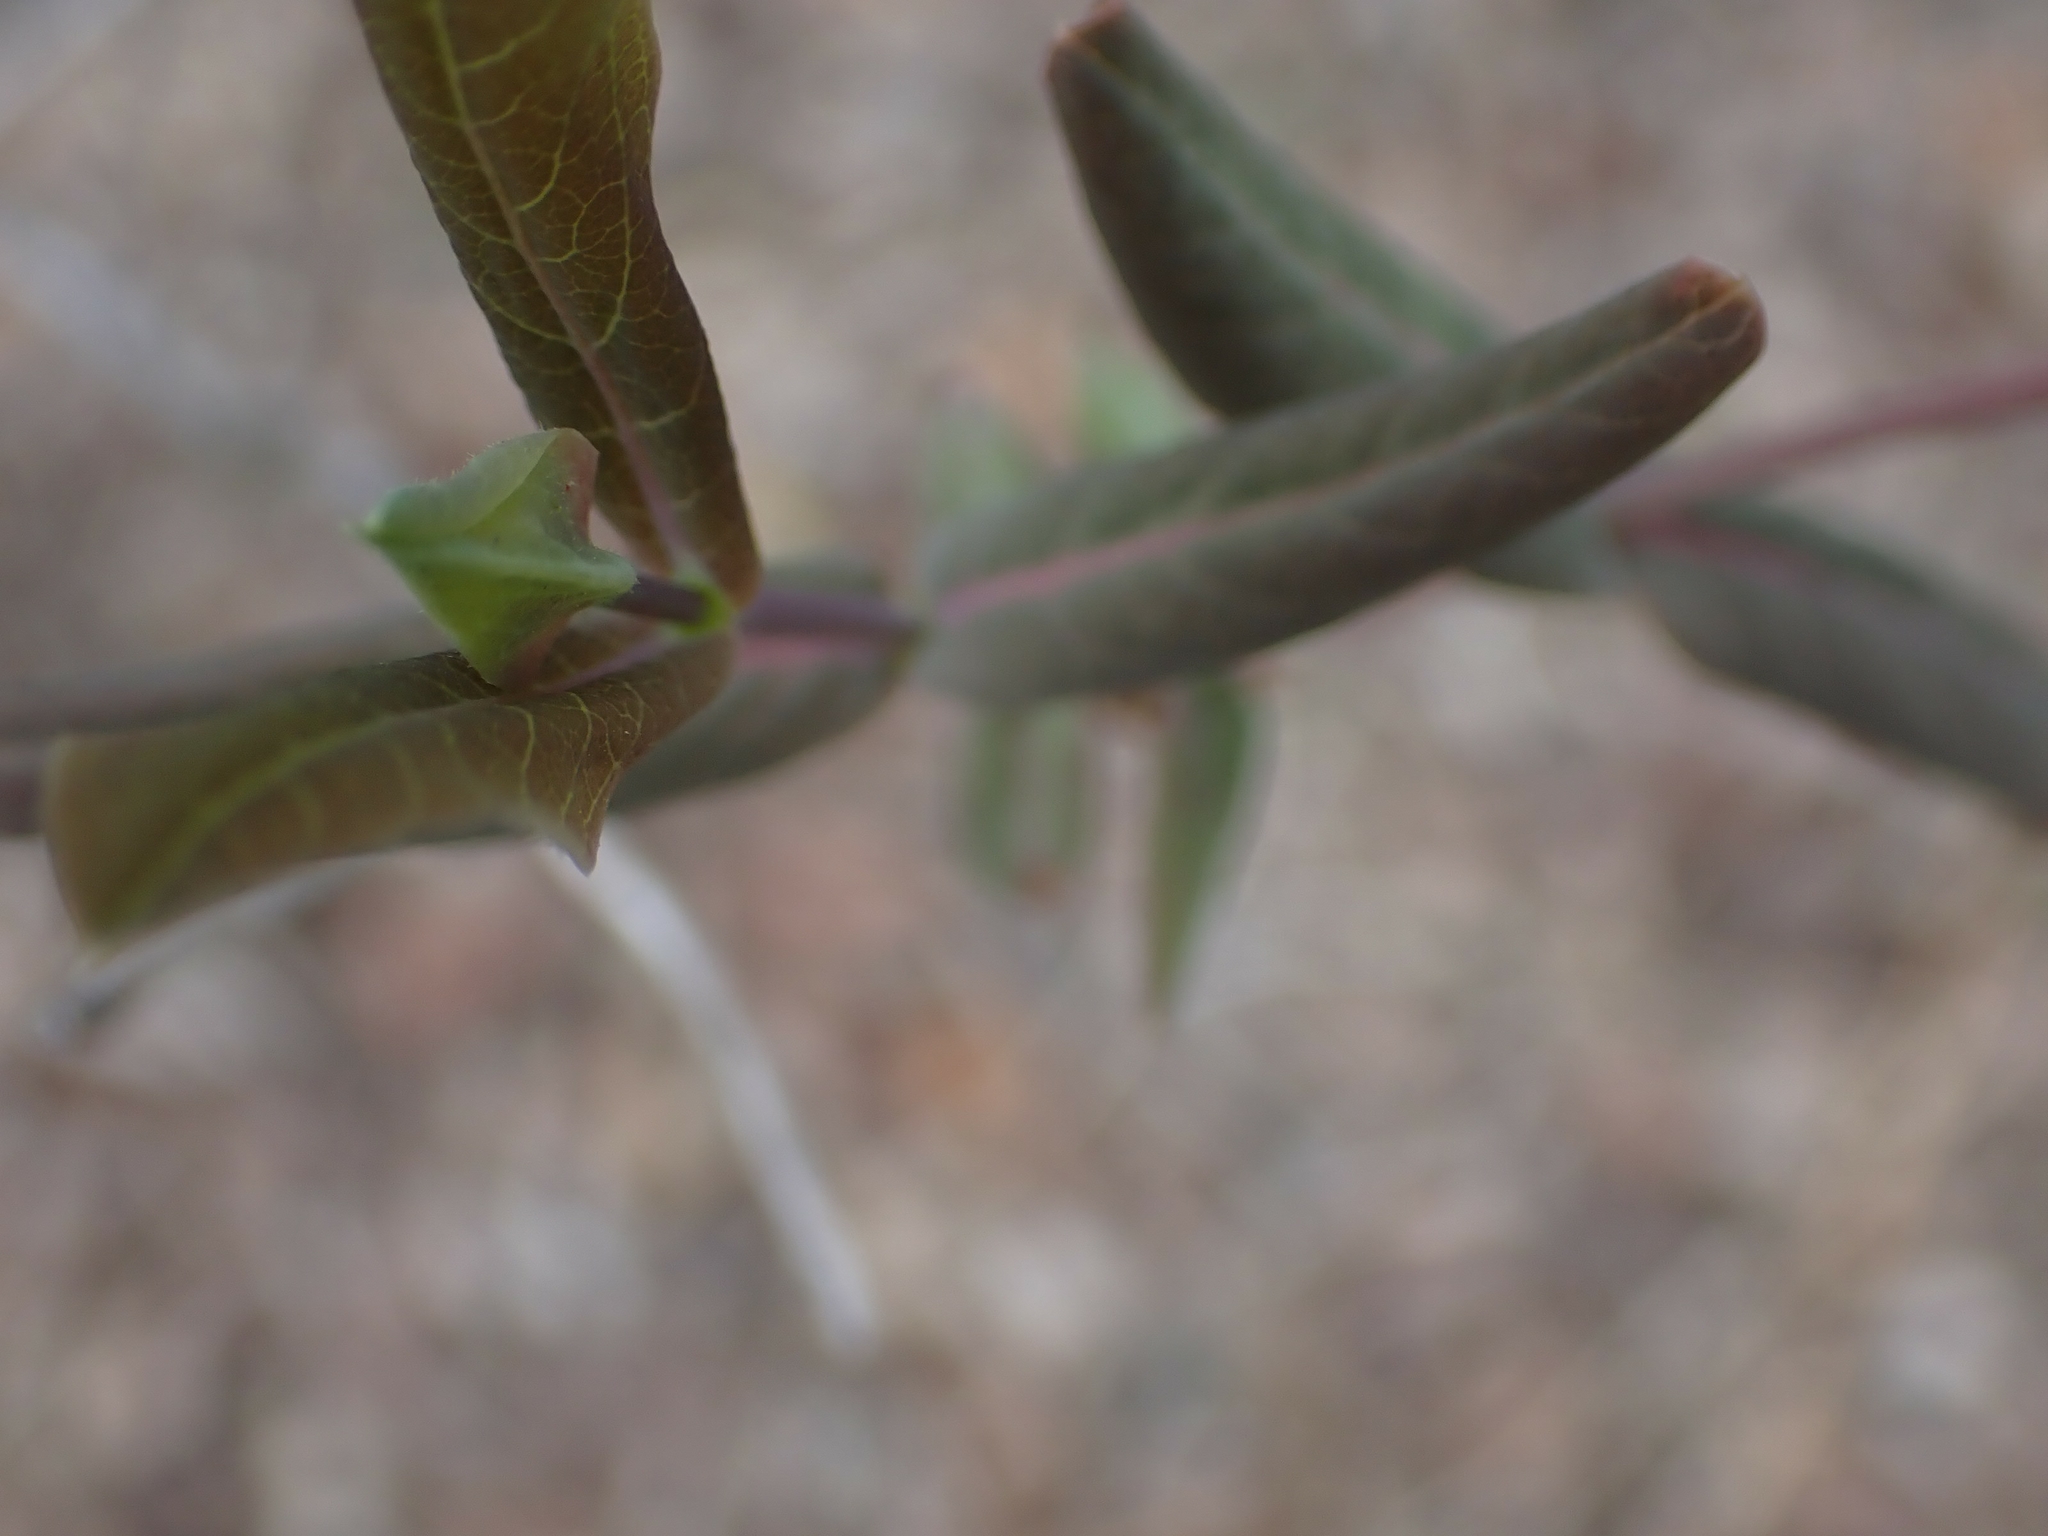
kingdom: Plantae
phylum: Tracheophyta
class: Magnoliopsida
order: Dipsacales
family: Caprifoliaceae
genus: Lonicera
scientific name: Lonicera dioica
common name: Limber honeysuckle
